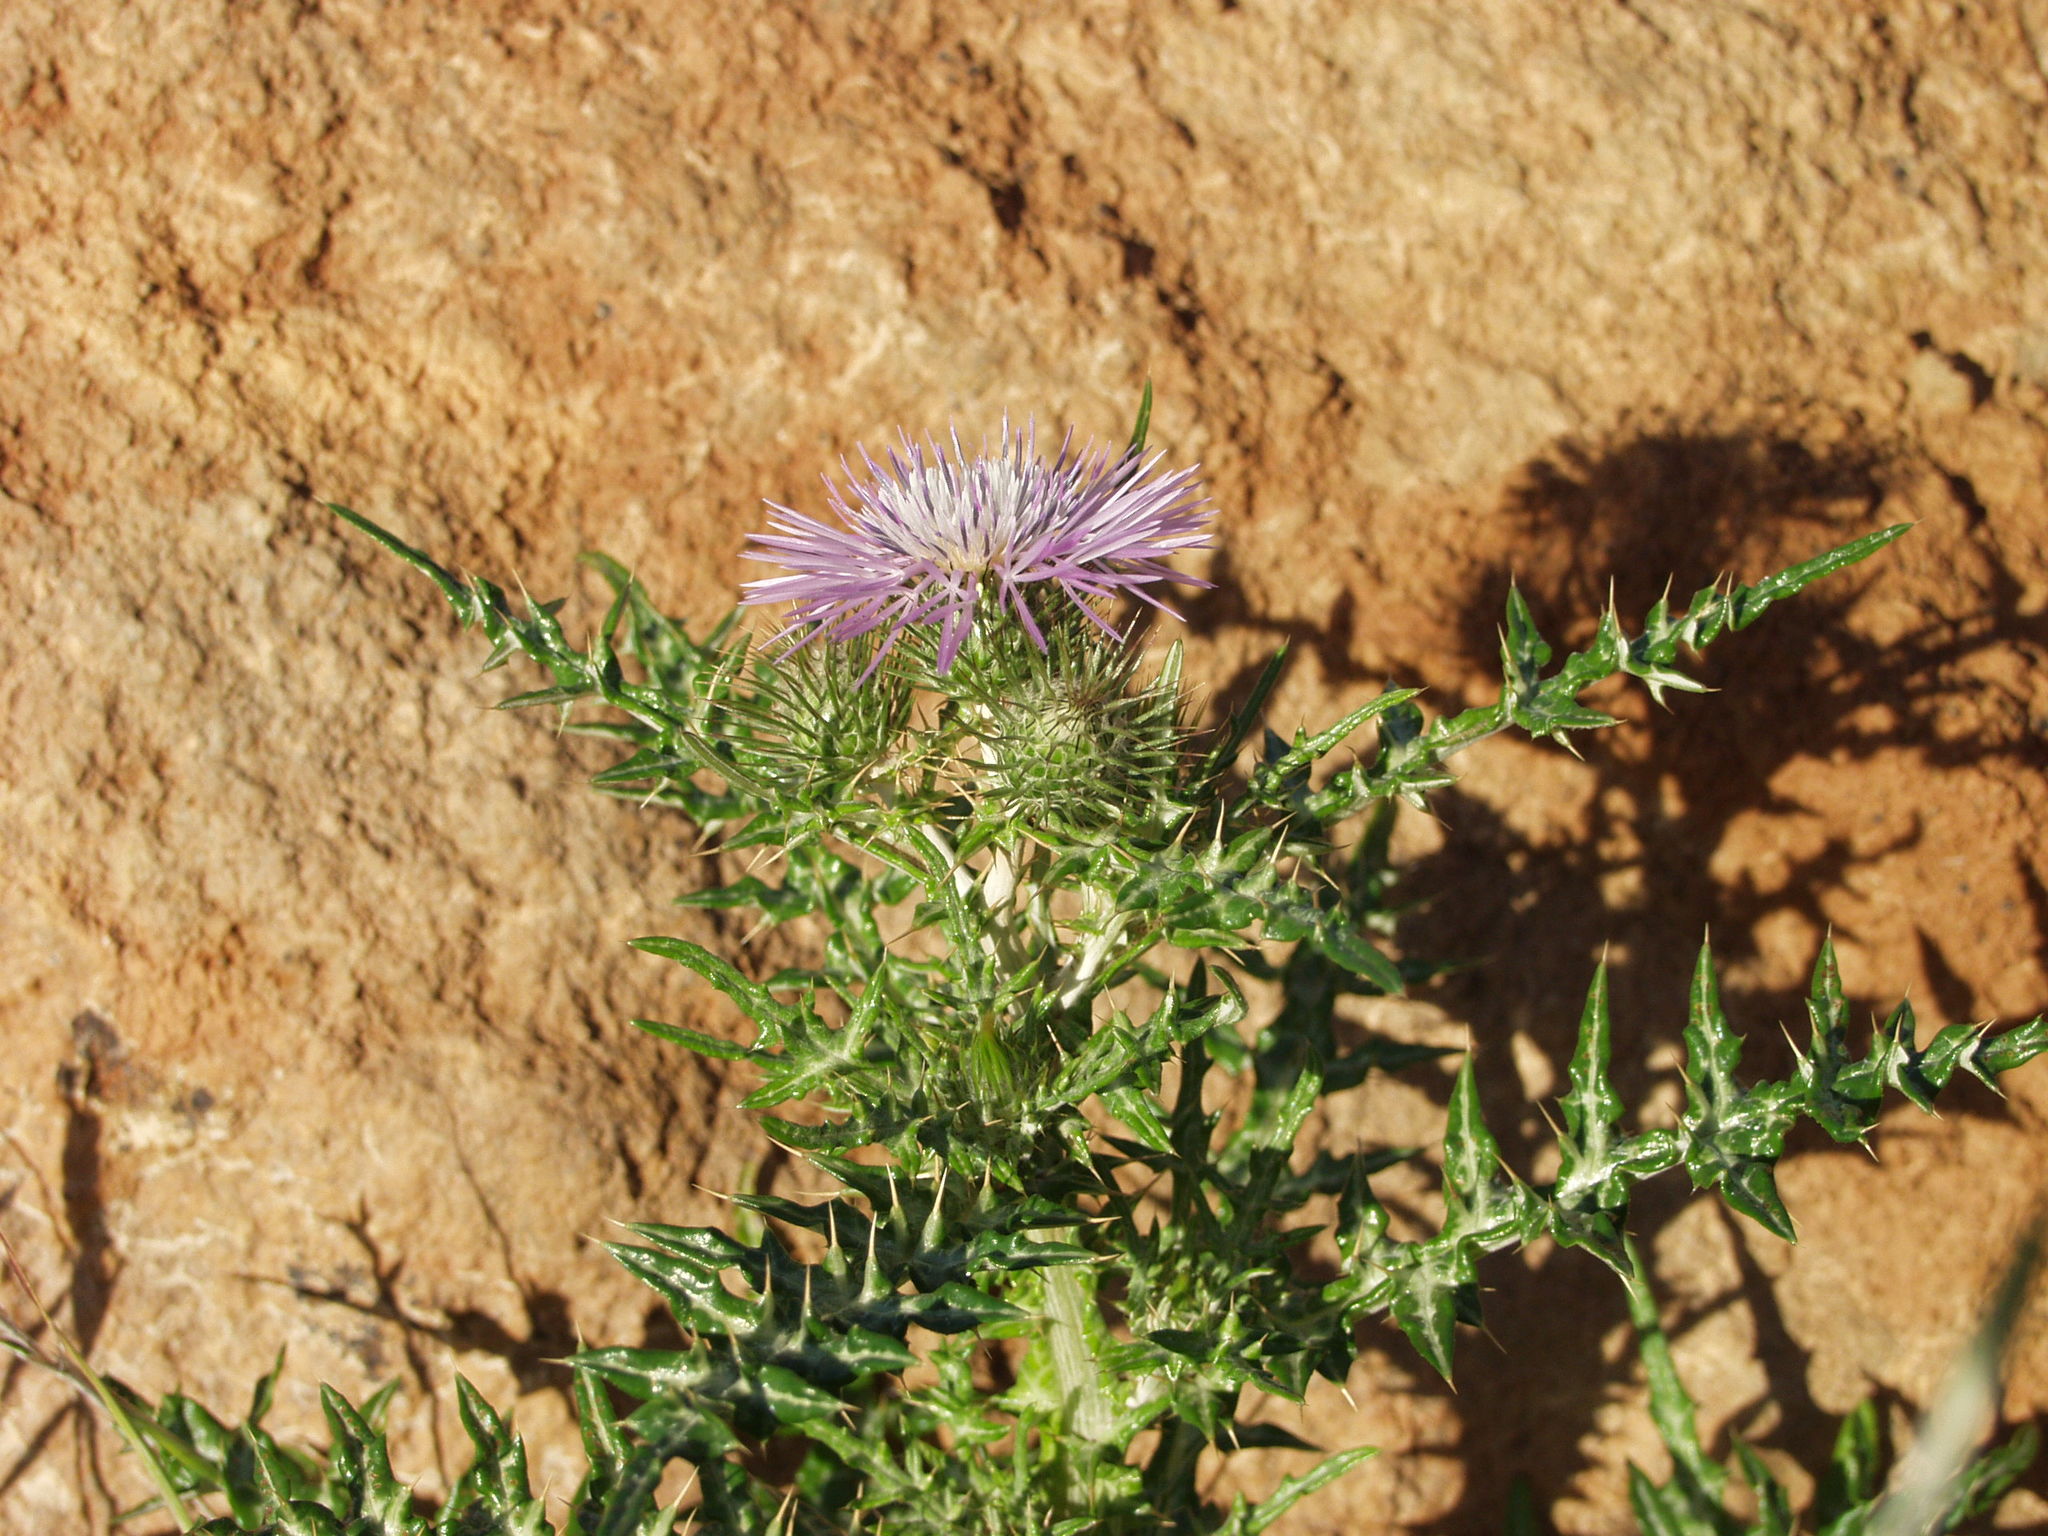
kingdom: Plantae
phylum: Tracheophyta
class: Magnoliopsida
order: Asterales
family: Asteraceae
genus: Galactites
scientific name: Galactites tomentosa
